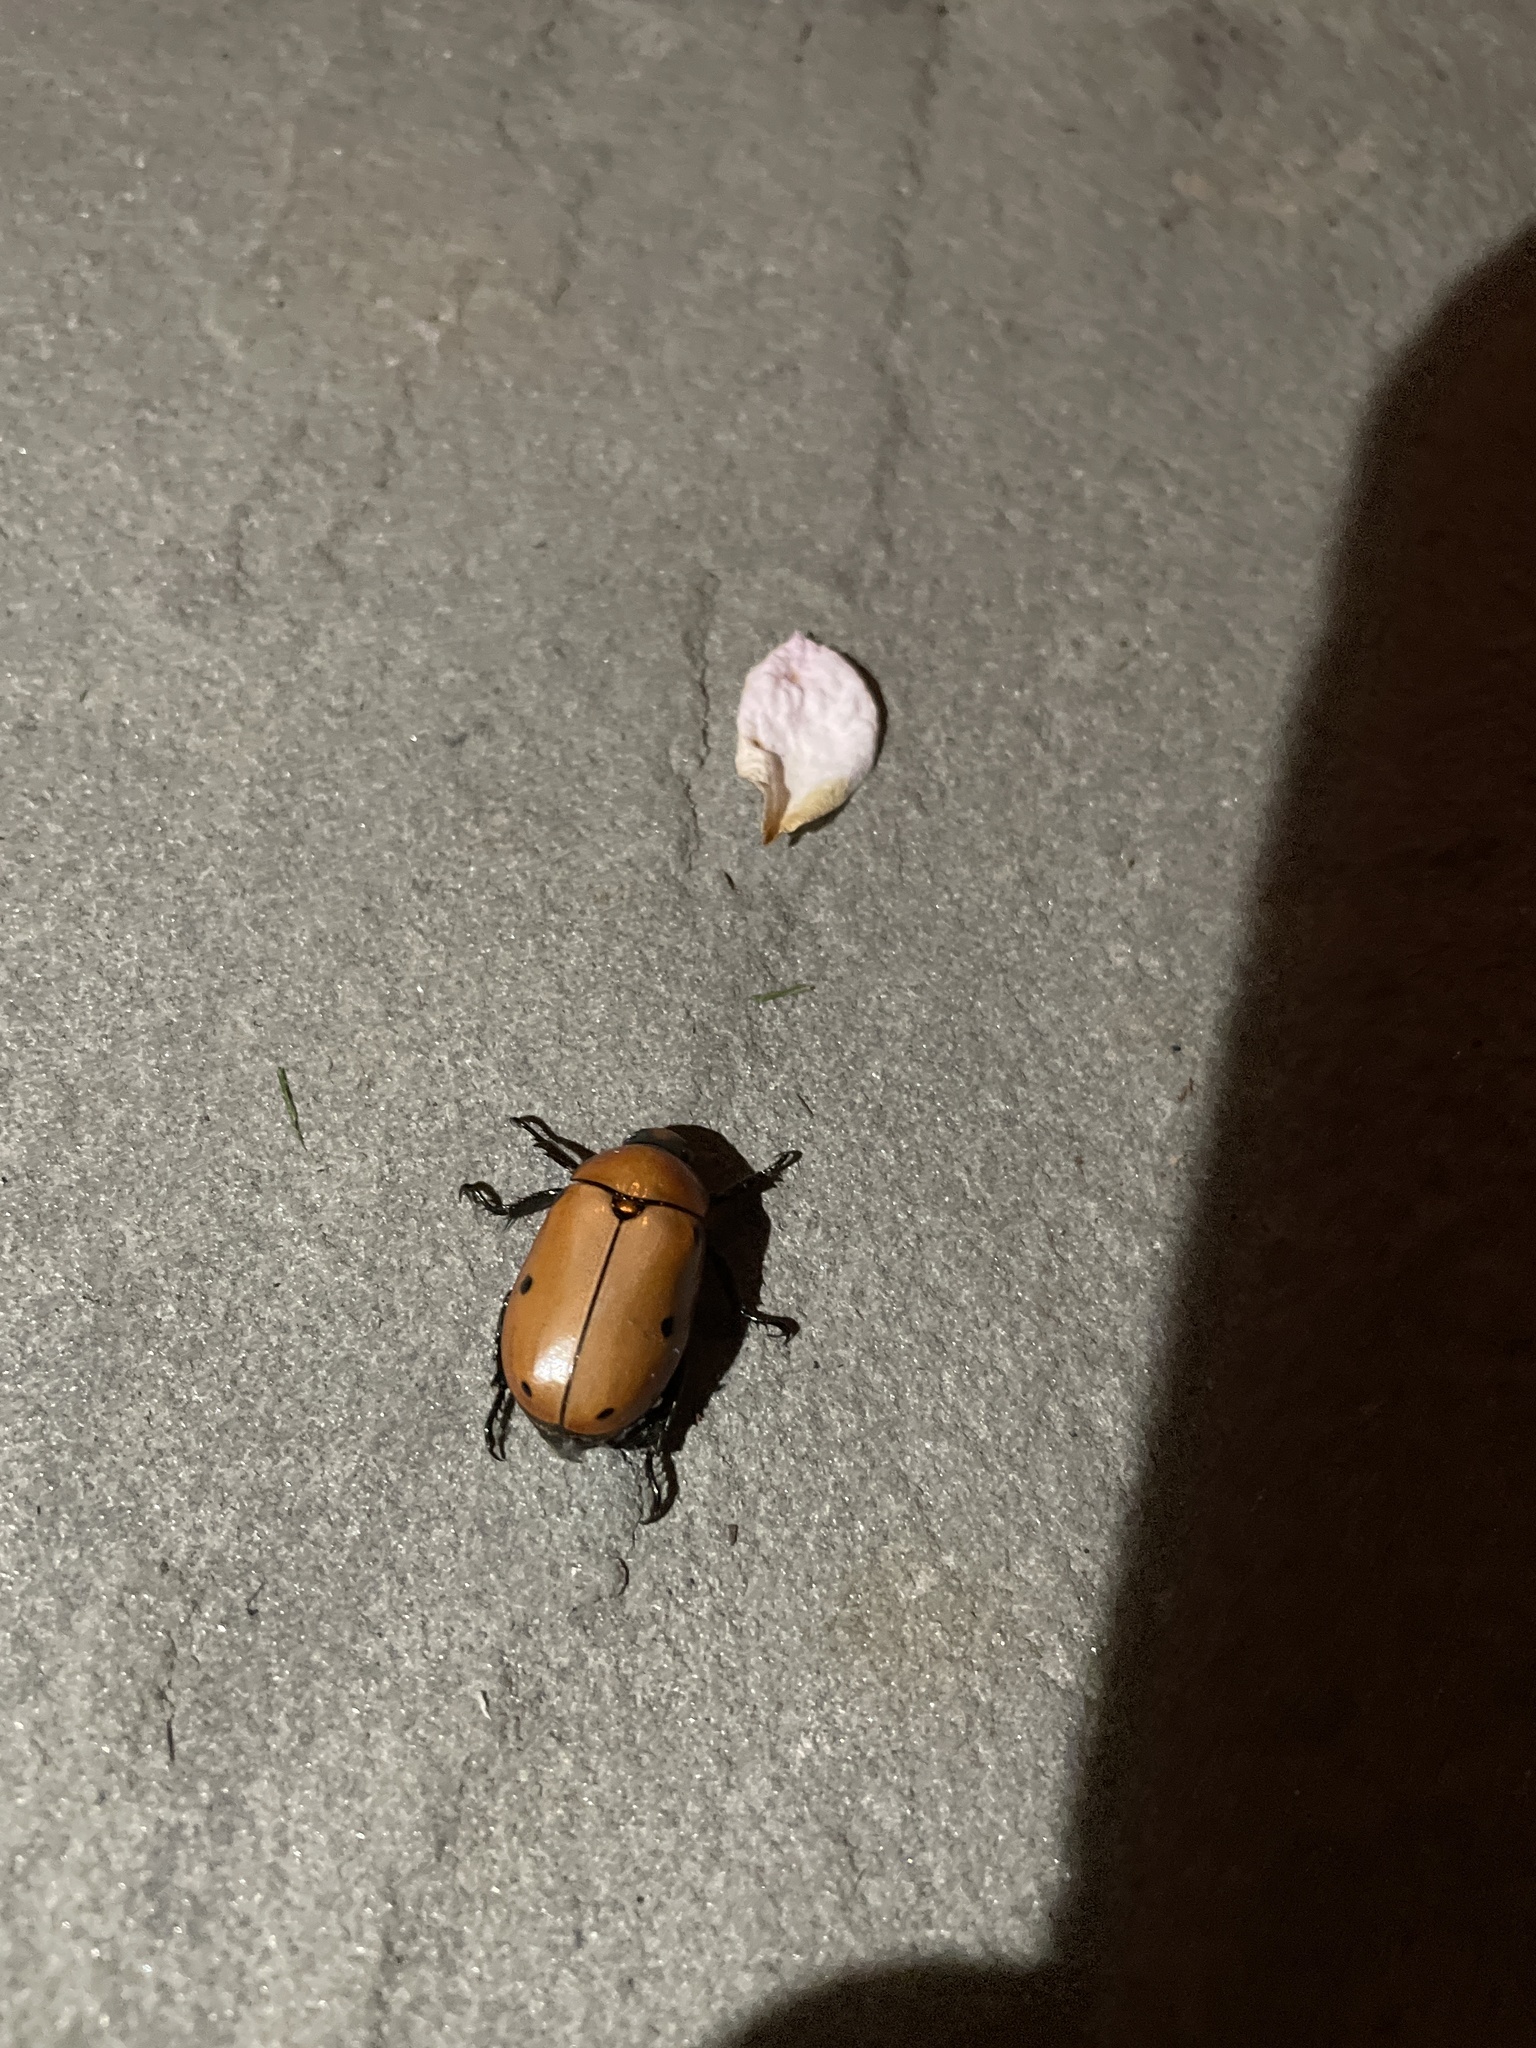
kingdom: Animalia
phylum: Arthropoda
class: Insecta
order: Coleoptera
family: Scarabaeidae
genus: Pelidnota
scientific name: Pelidnota punctata
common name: Grapevine beetle
